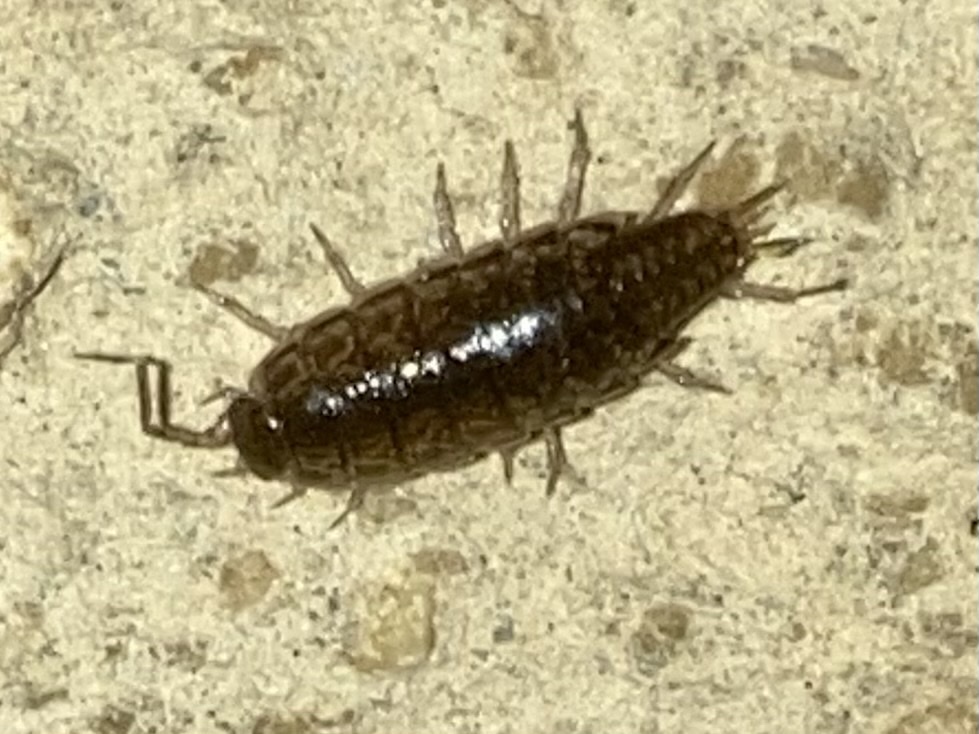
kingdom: Animalia
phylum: Arthropoda
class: Malacostraca
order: Isopoda
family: Philosciidae
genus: Chaetophiloscia
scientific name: Chaetophiloscia elongata
